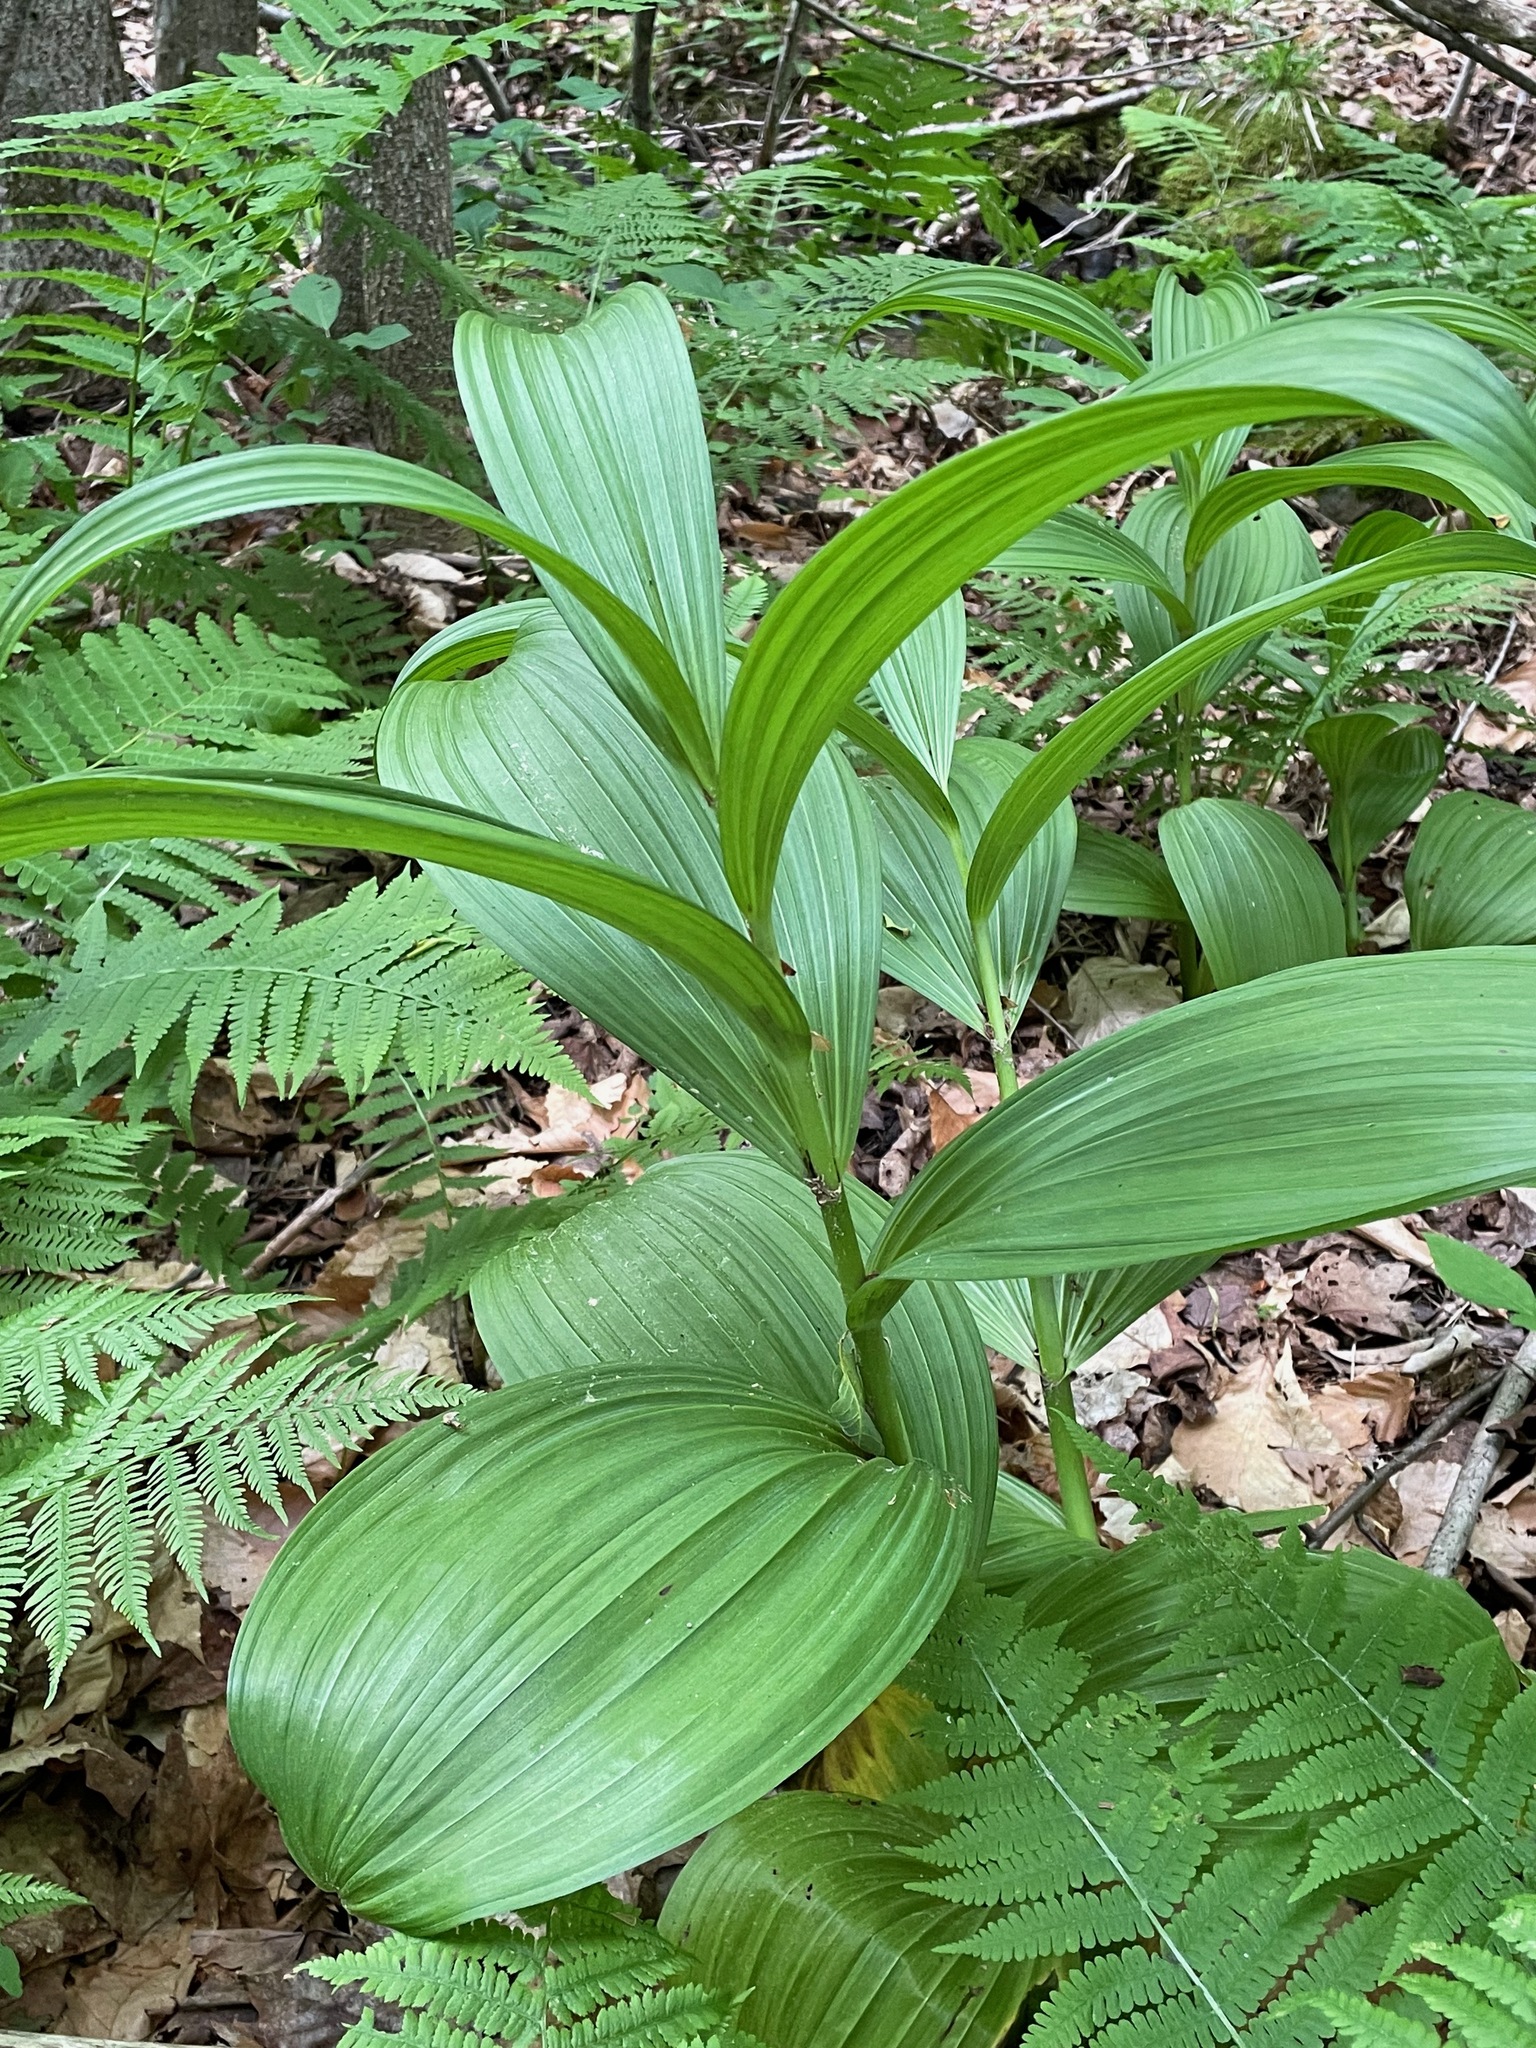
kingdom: Plantae
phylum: Tracheophyta
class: Liliopsida
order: Liliales
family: Melanthiaceae
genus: Veratrum
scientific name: Veratrum viride
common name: American false hellebore
